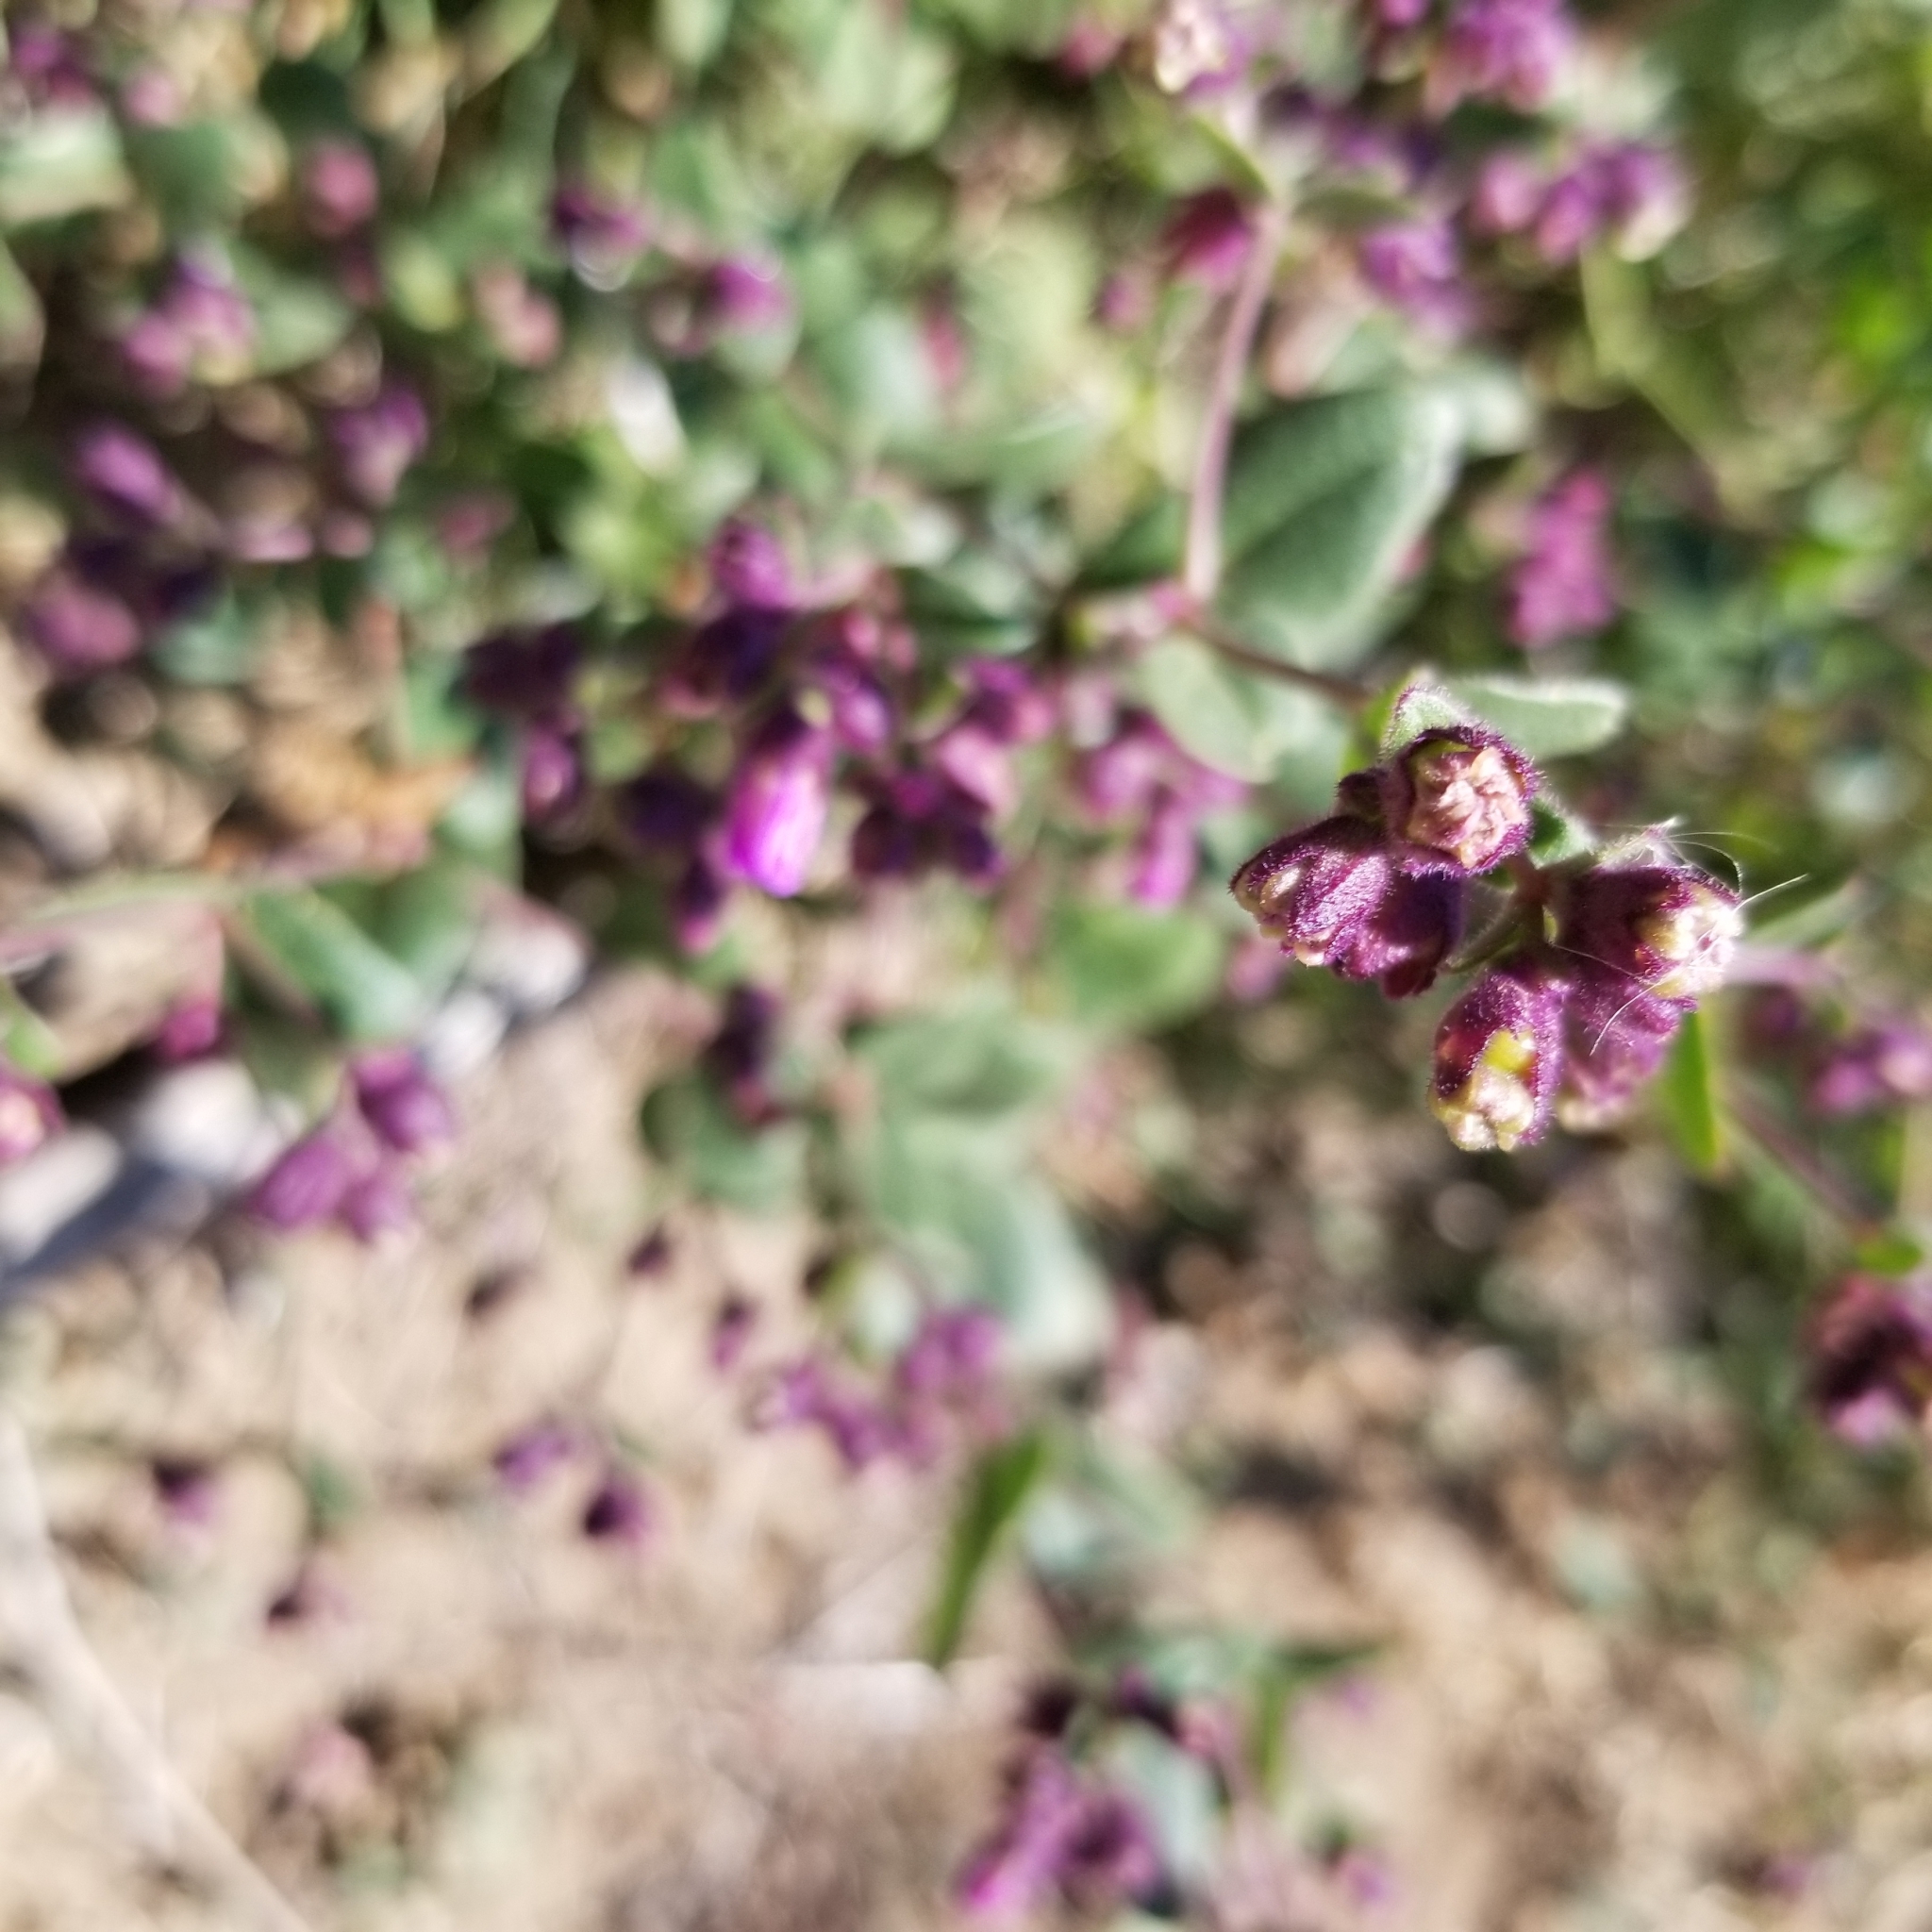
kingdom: Plantae
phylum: Tracheophyta
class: Magnoliopsida
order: Caryophyllales
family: Nyctaginaceae
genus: Mirabilis
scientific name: Mirabilis laevis
